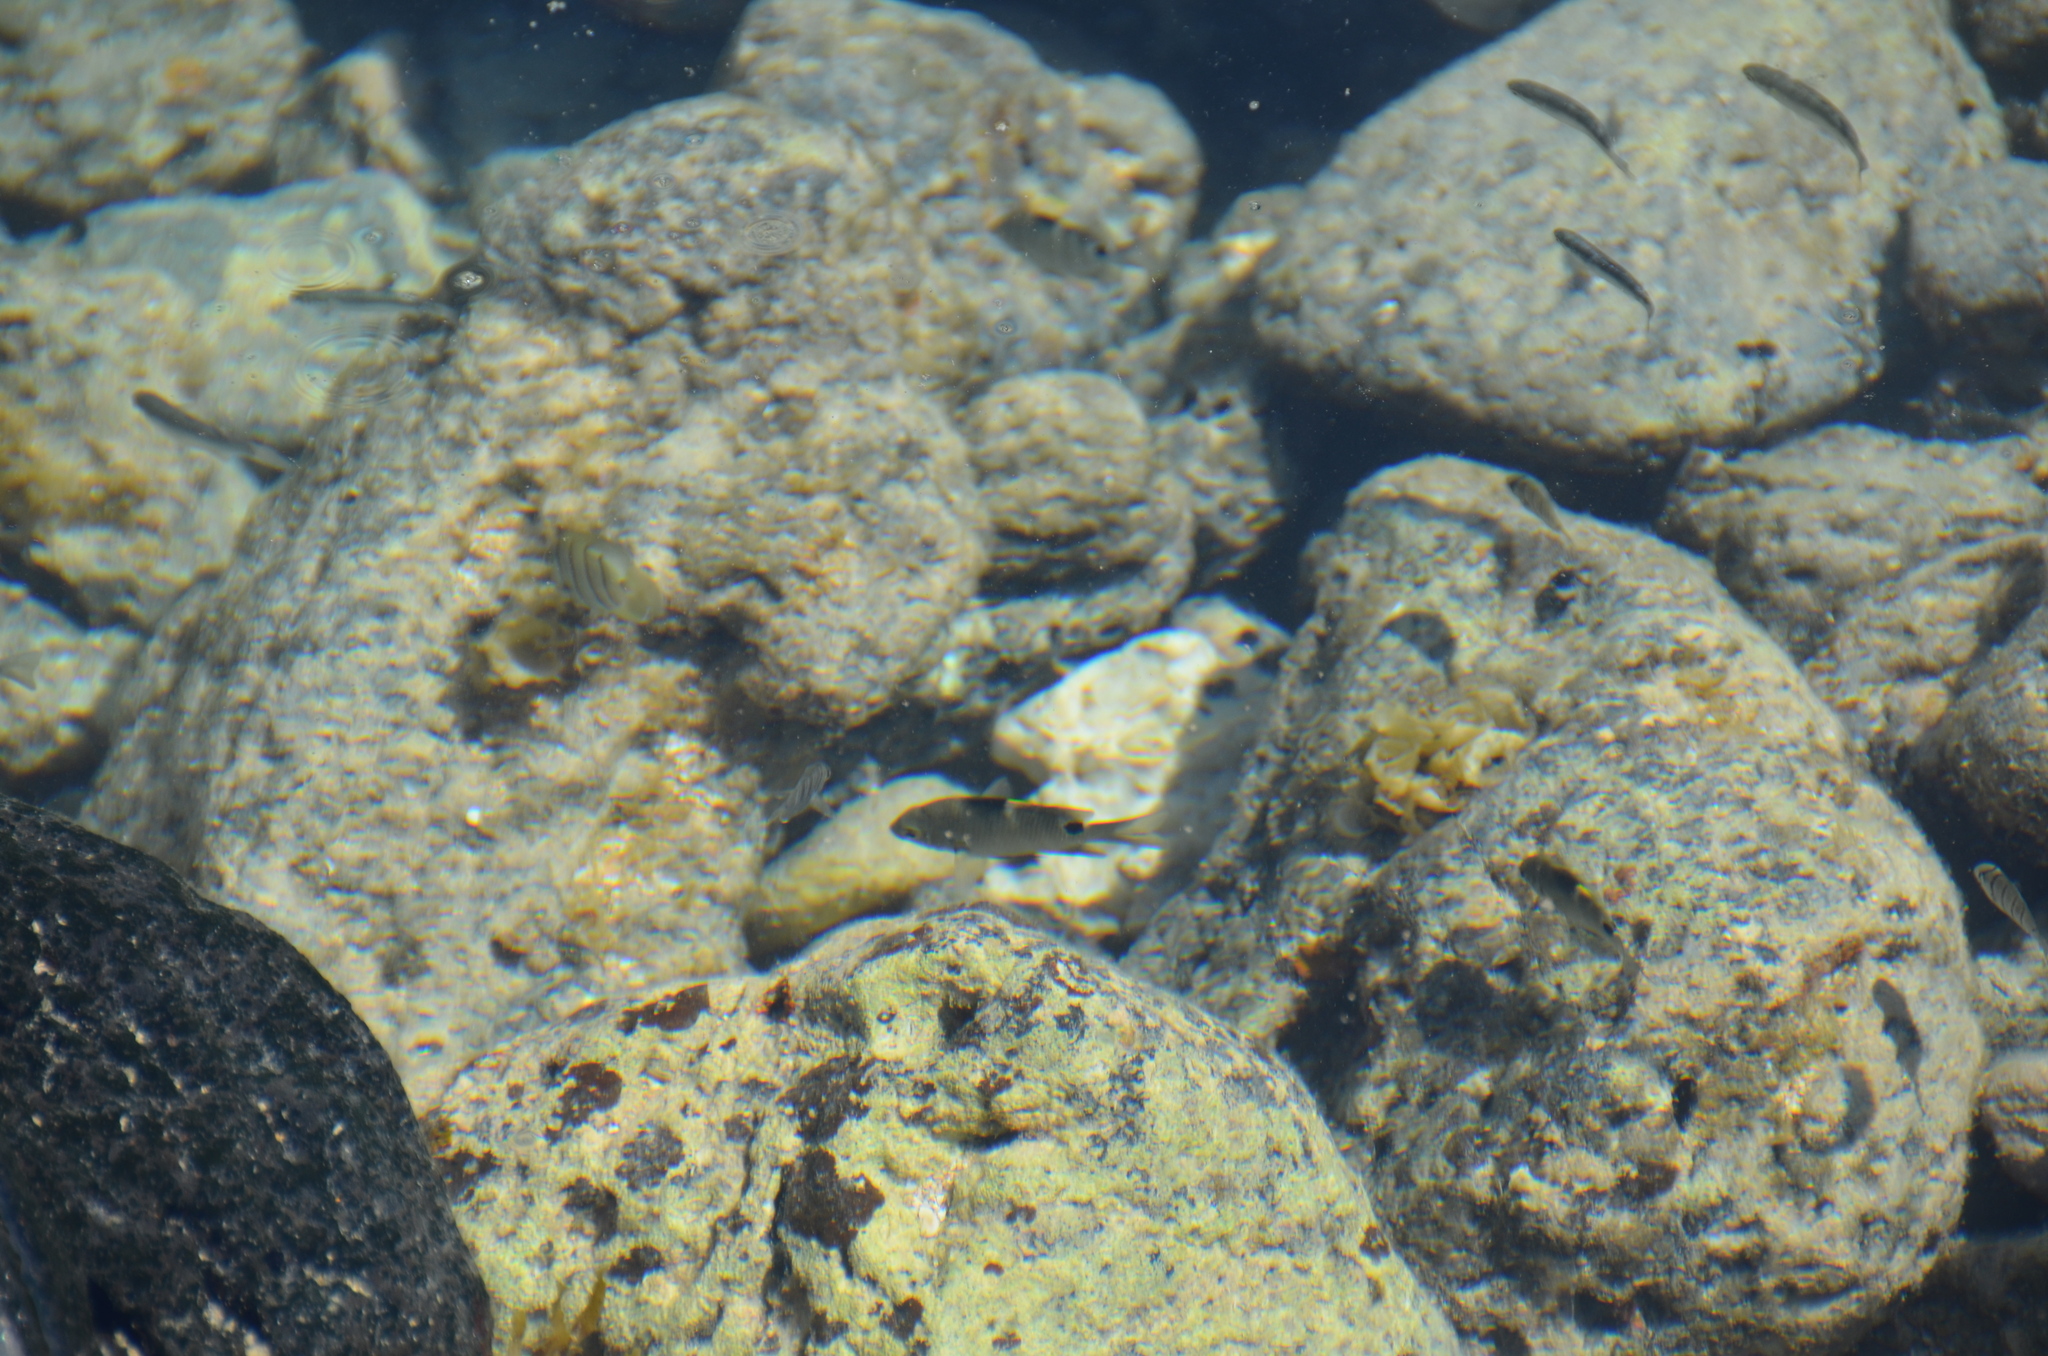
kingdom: Animalia
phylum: Chordata
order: Perciformes
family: Pomacentridae
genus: Abudefduf
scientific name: Abudefduf sordidus
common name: Blackspot sergeant
